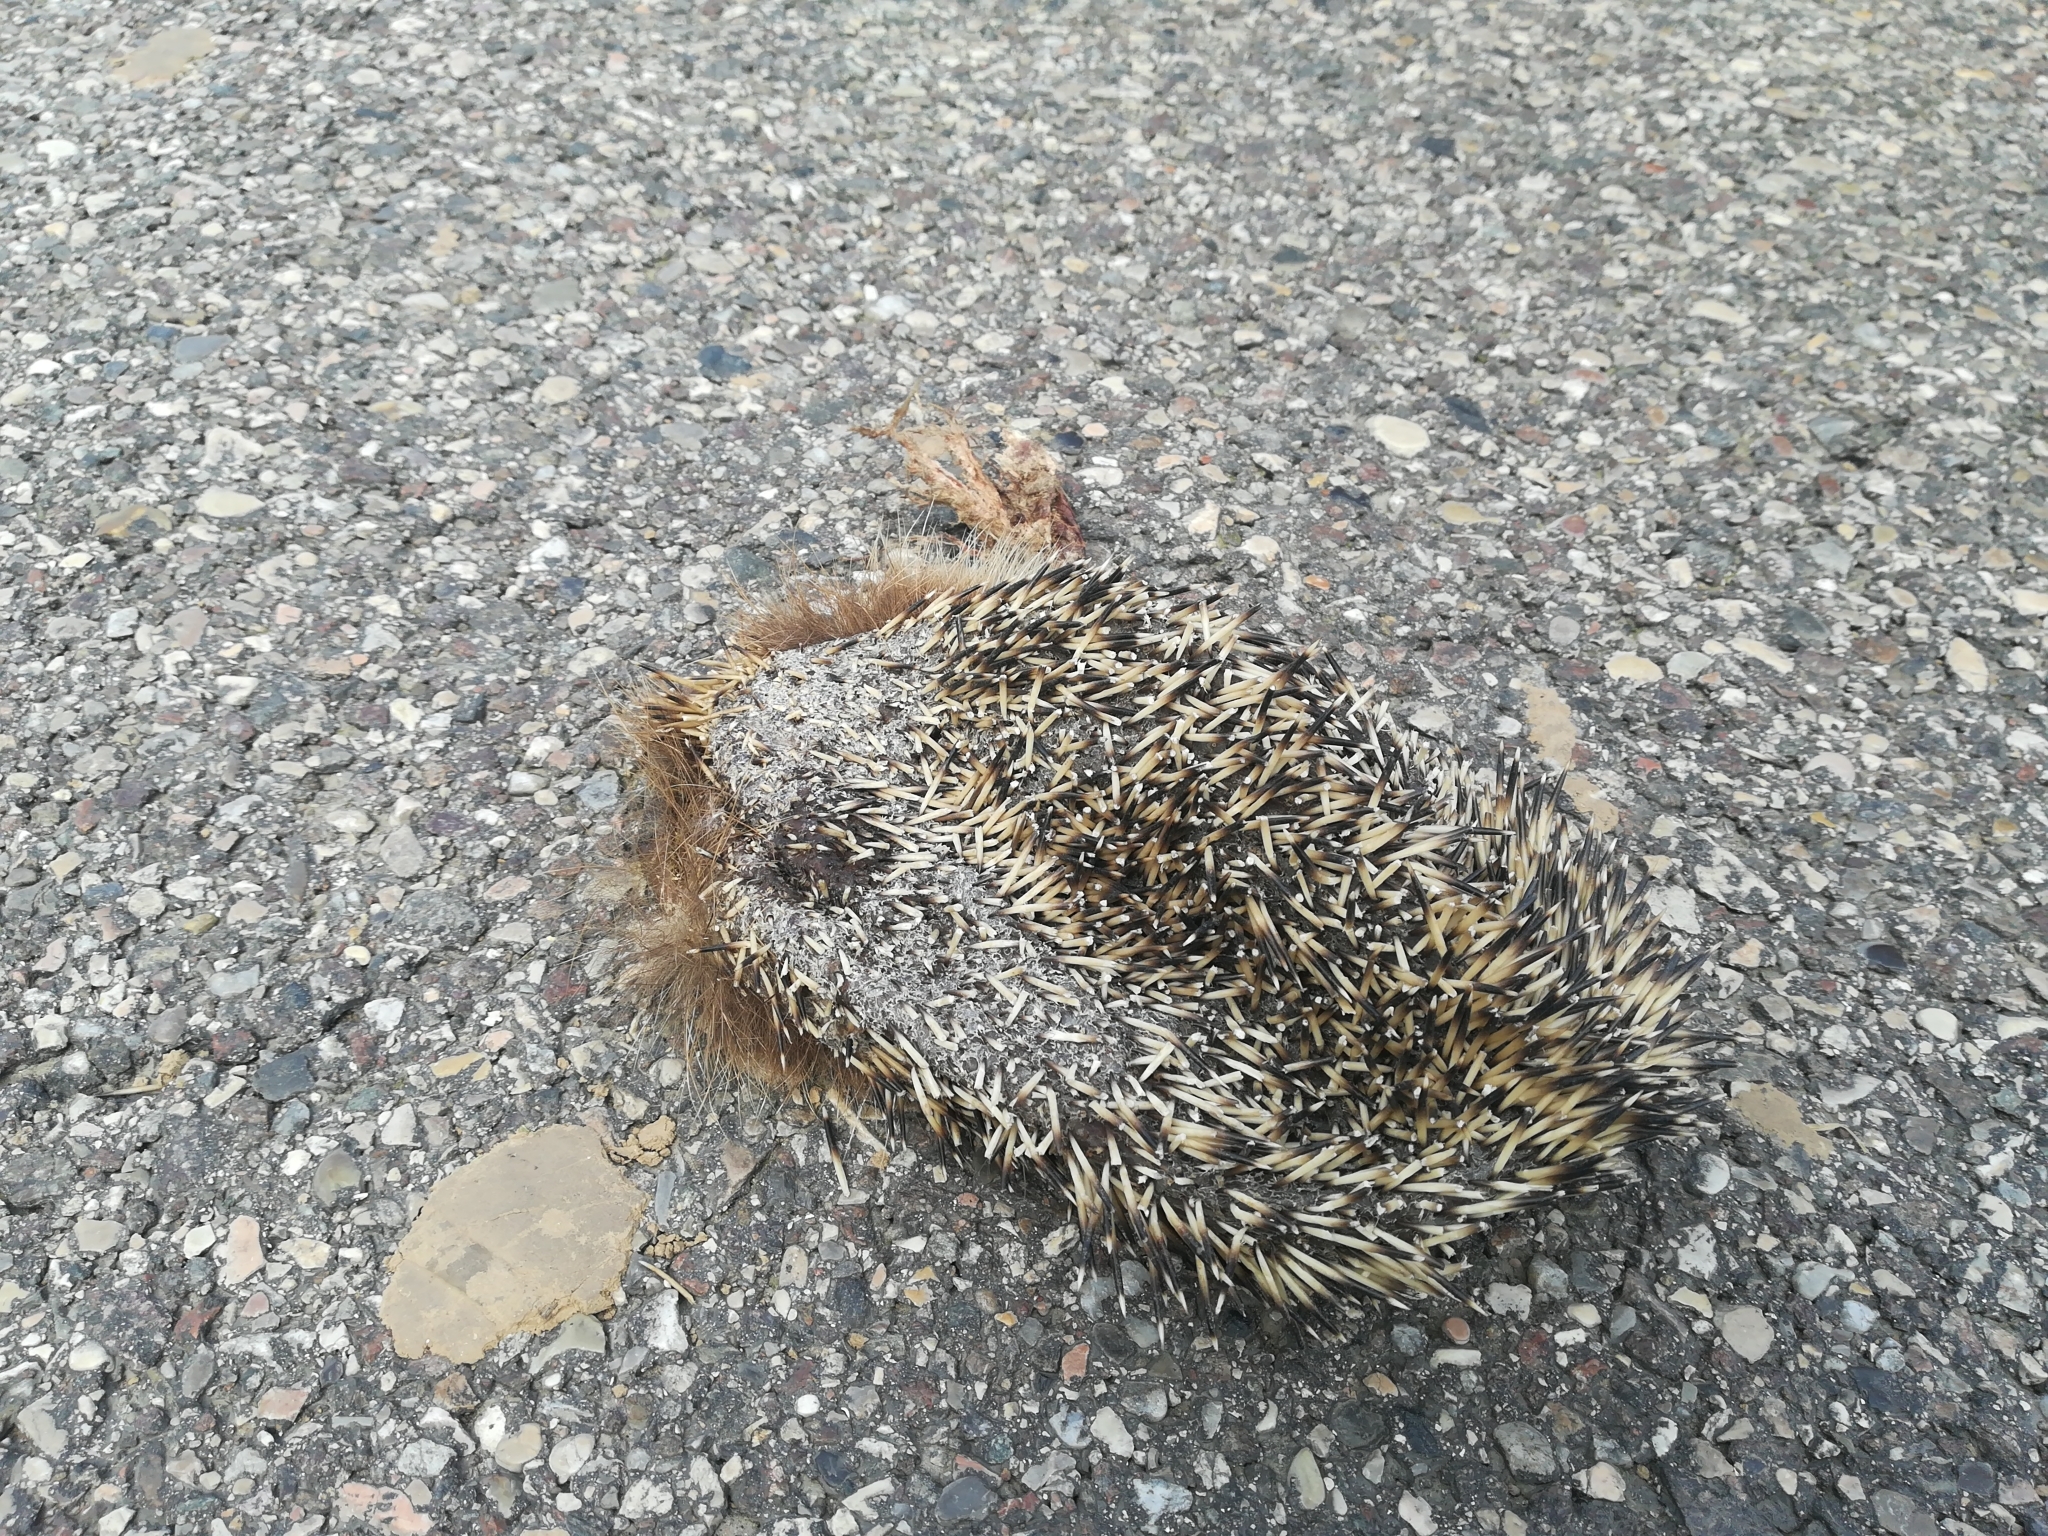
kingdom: Animalia
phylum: Chordata
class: Mammalia
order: Erinaceomorpha
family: Erinaceidae
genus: Erinaceus
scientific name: Erinaceus europaeus
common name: West european hedgehog
